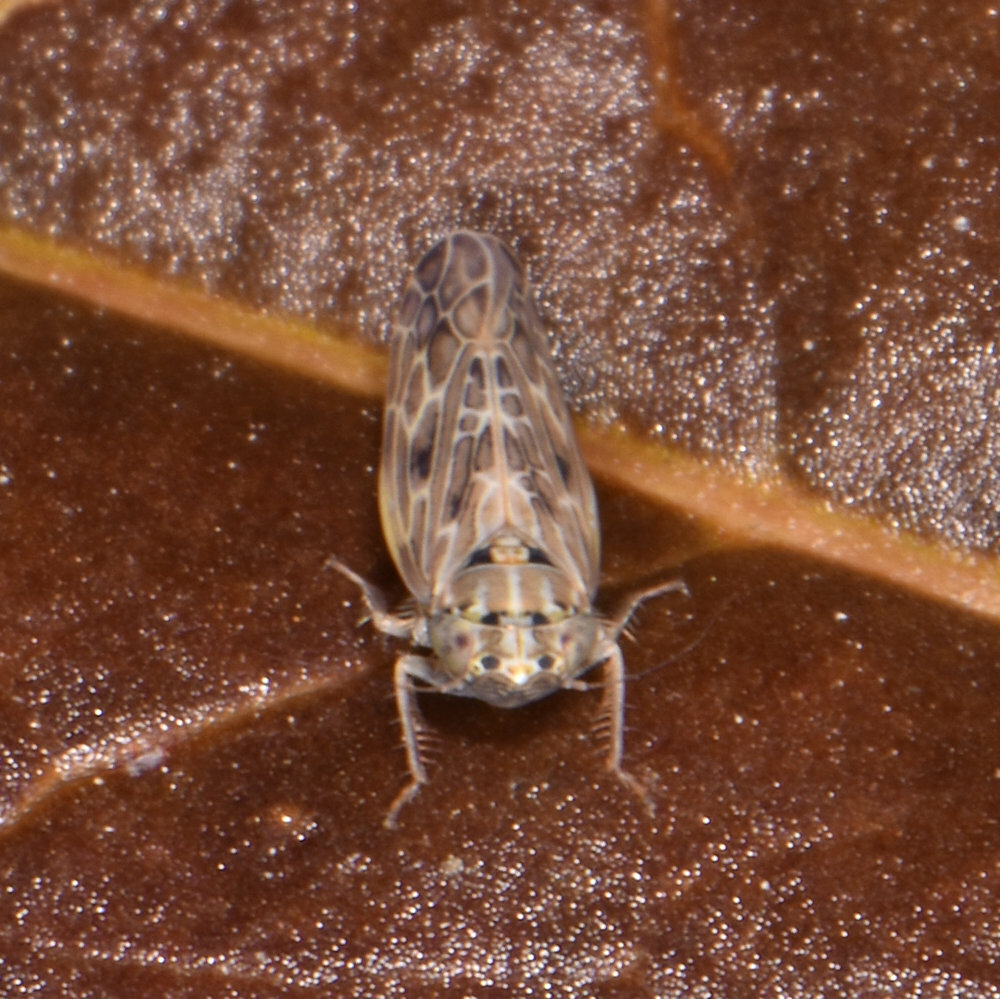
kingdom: Animalia
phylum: Arthropoda
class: Insecta
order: Hemiptera
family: Cicadellidae
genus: Endria
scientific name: Endria inimicus
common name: Painted leafhopper
